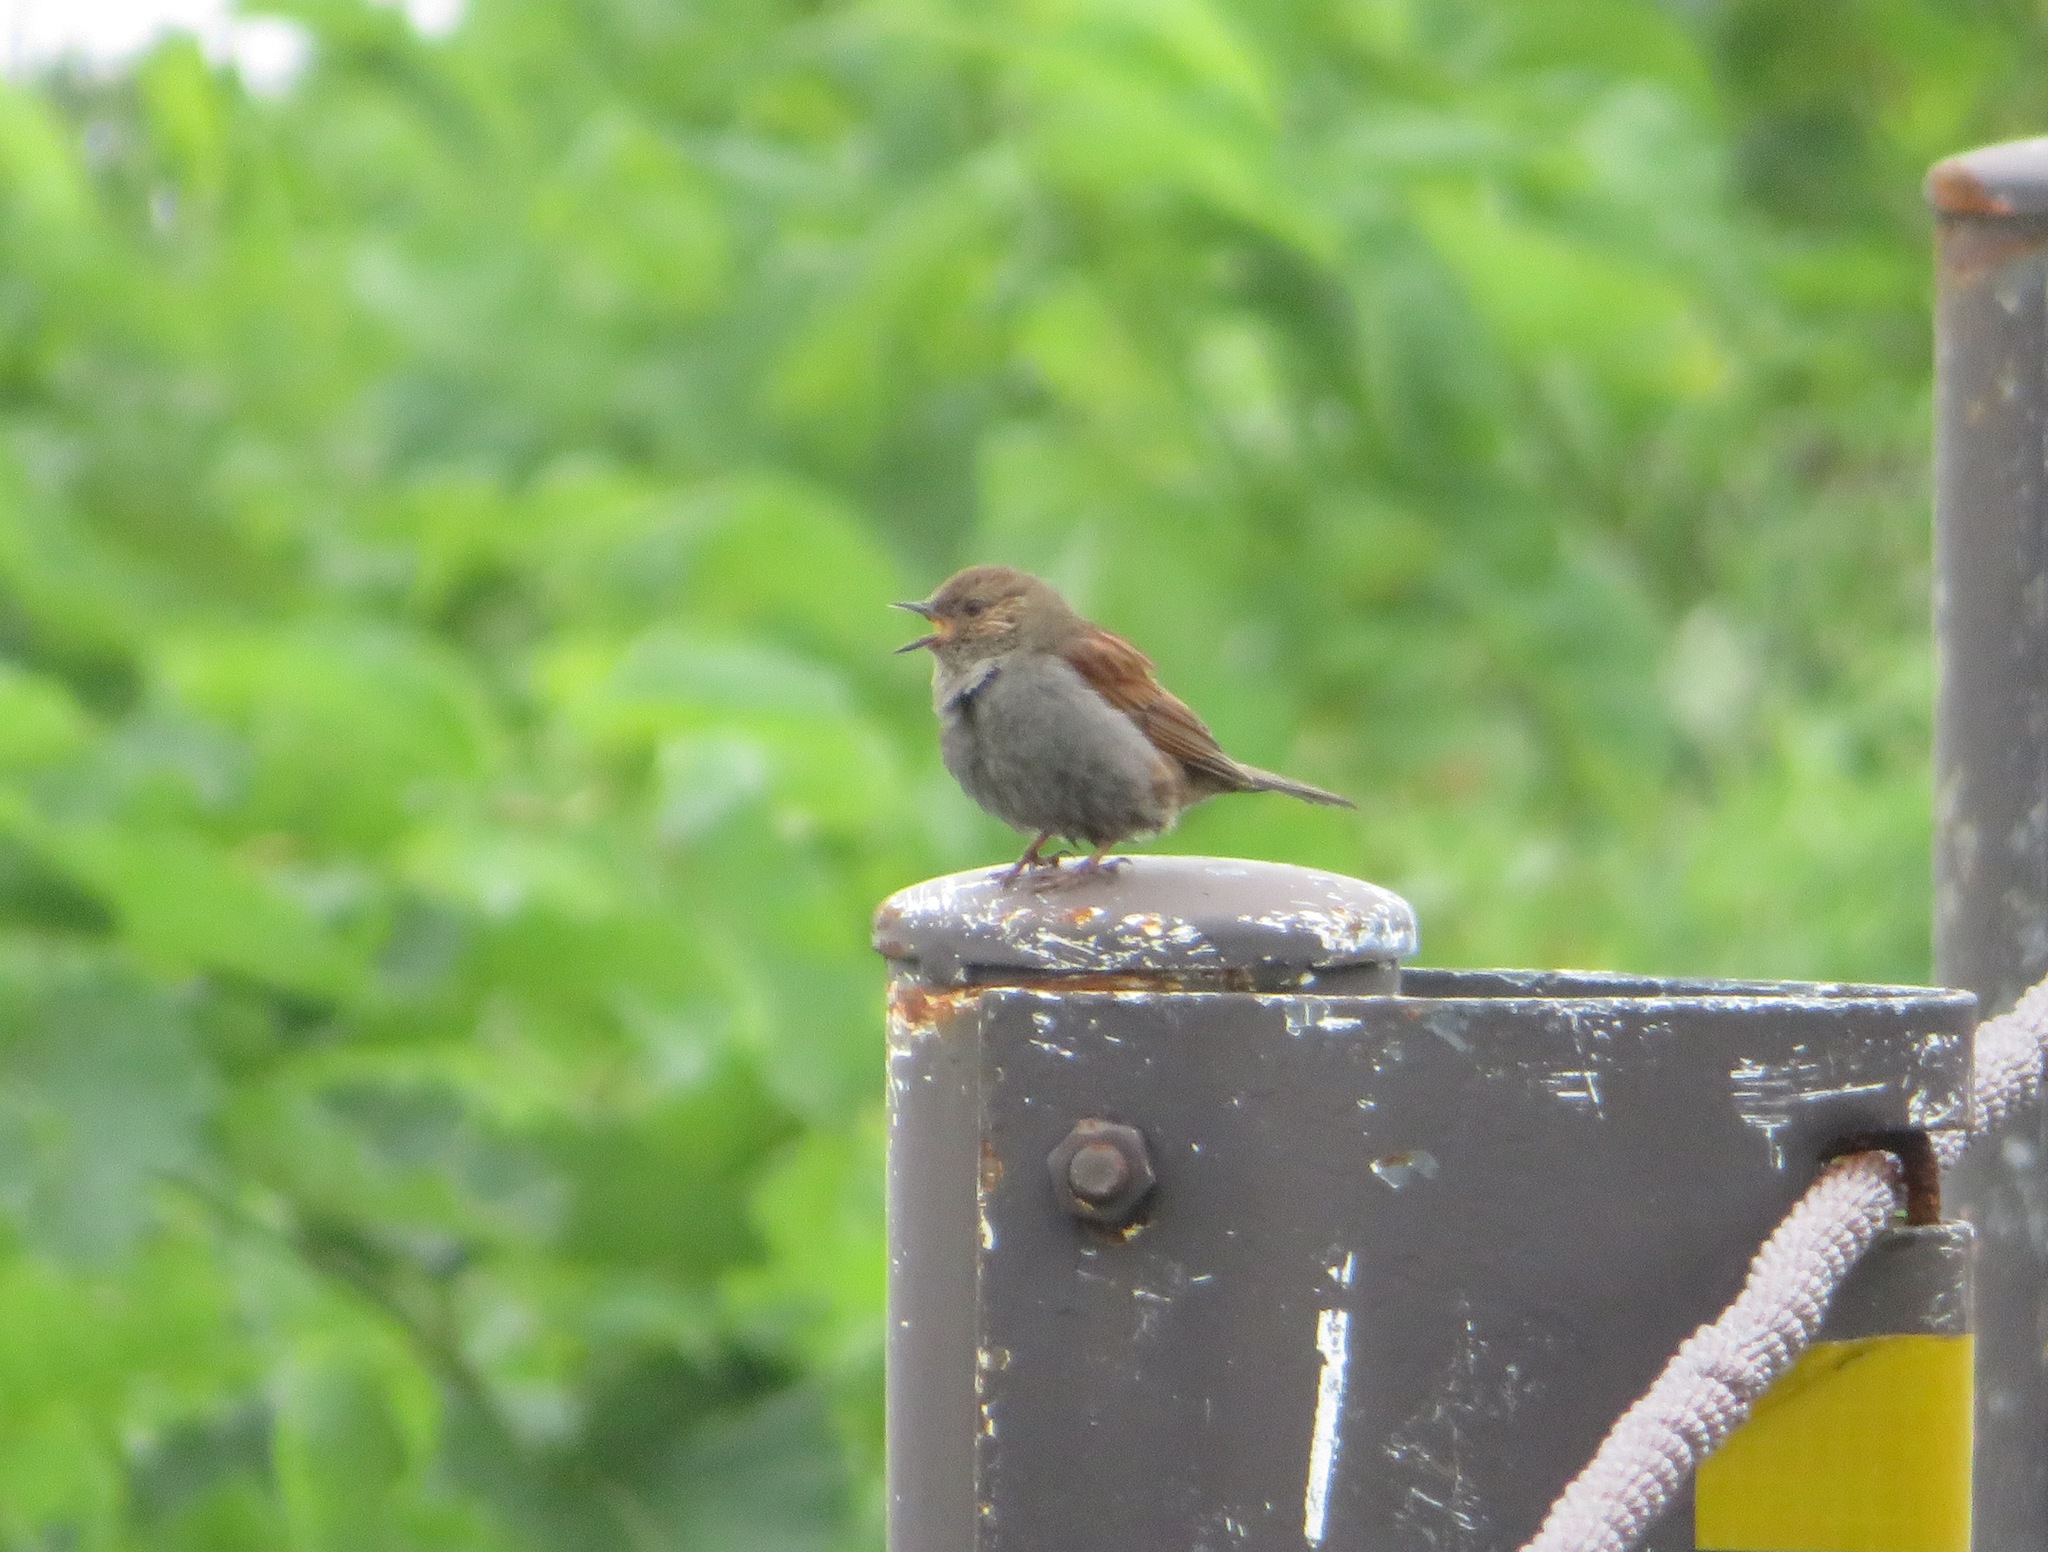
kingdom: Animalia
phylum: Chordata
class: Aves
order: Passeriformes
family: Prunellidae
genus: Prunella
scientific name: Prunella rubida
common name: Japanese accentor
